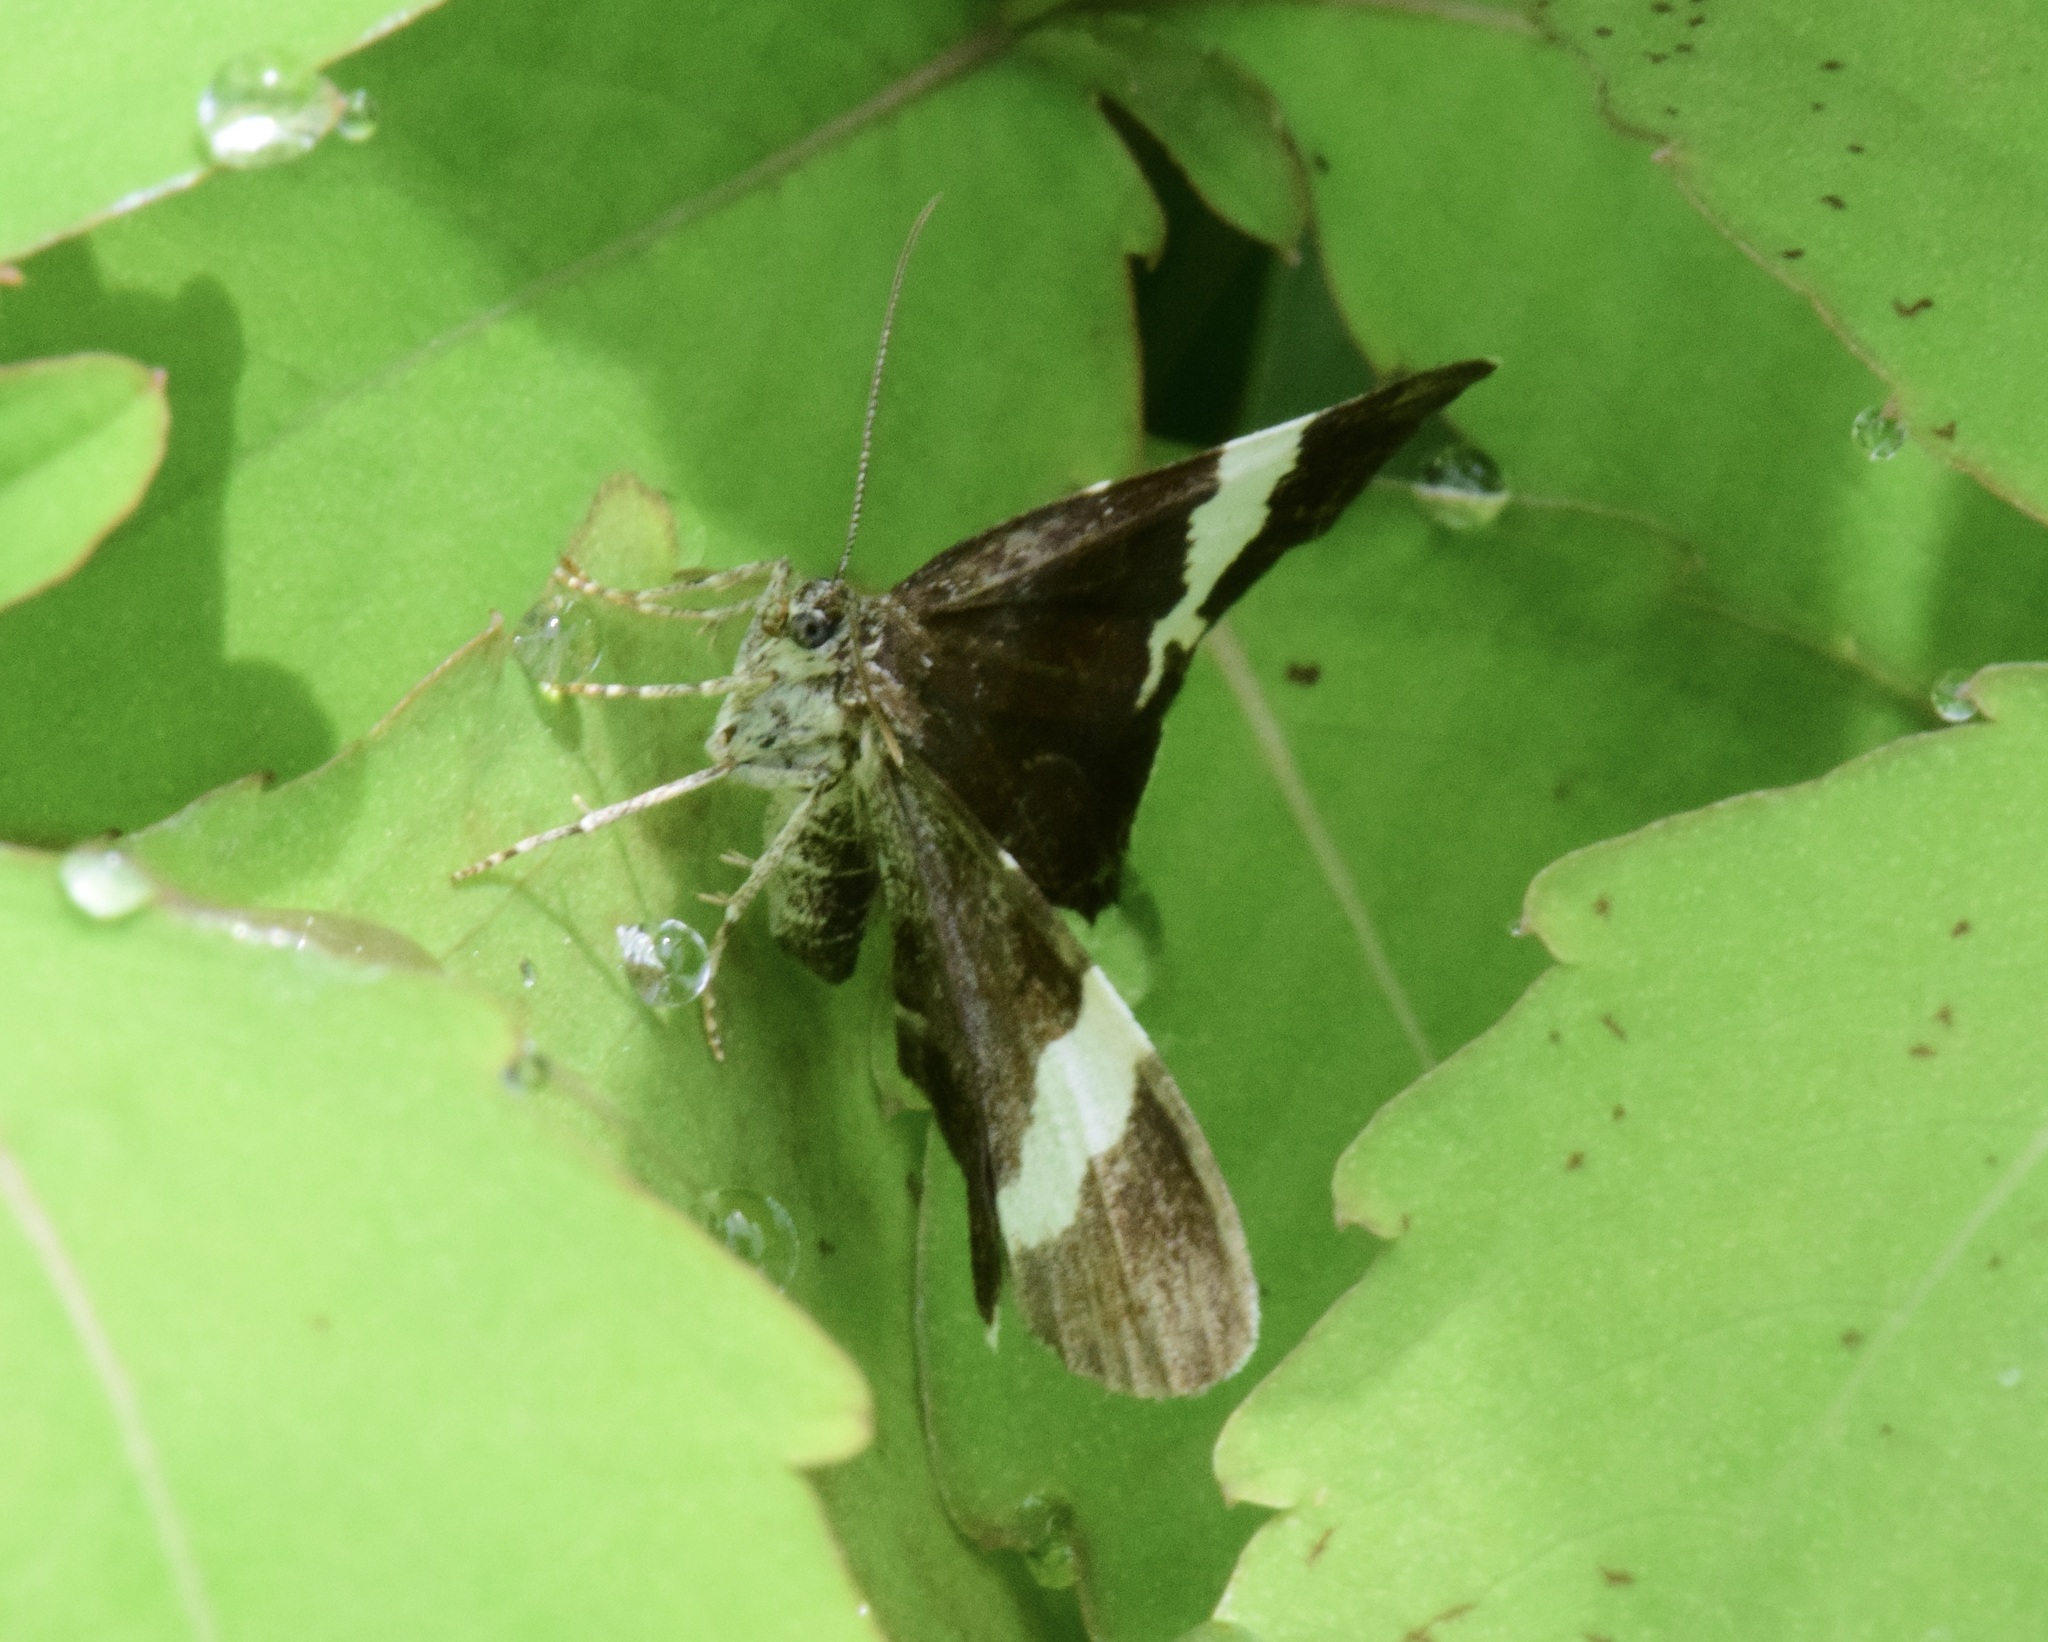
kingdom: Animalia
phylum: Arthropoda
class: Insecta
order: Lepidoptera
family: Geometridae
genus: Trichodezia
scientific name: Trichodezia albovittata
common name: White striped black
